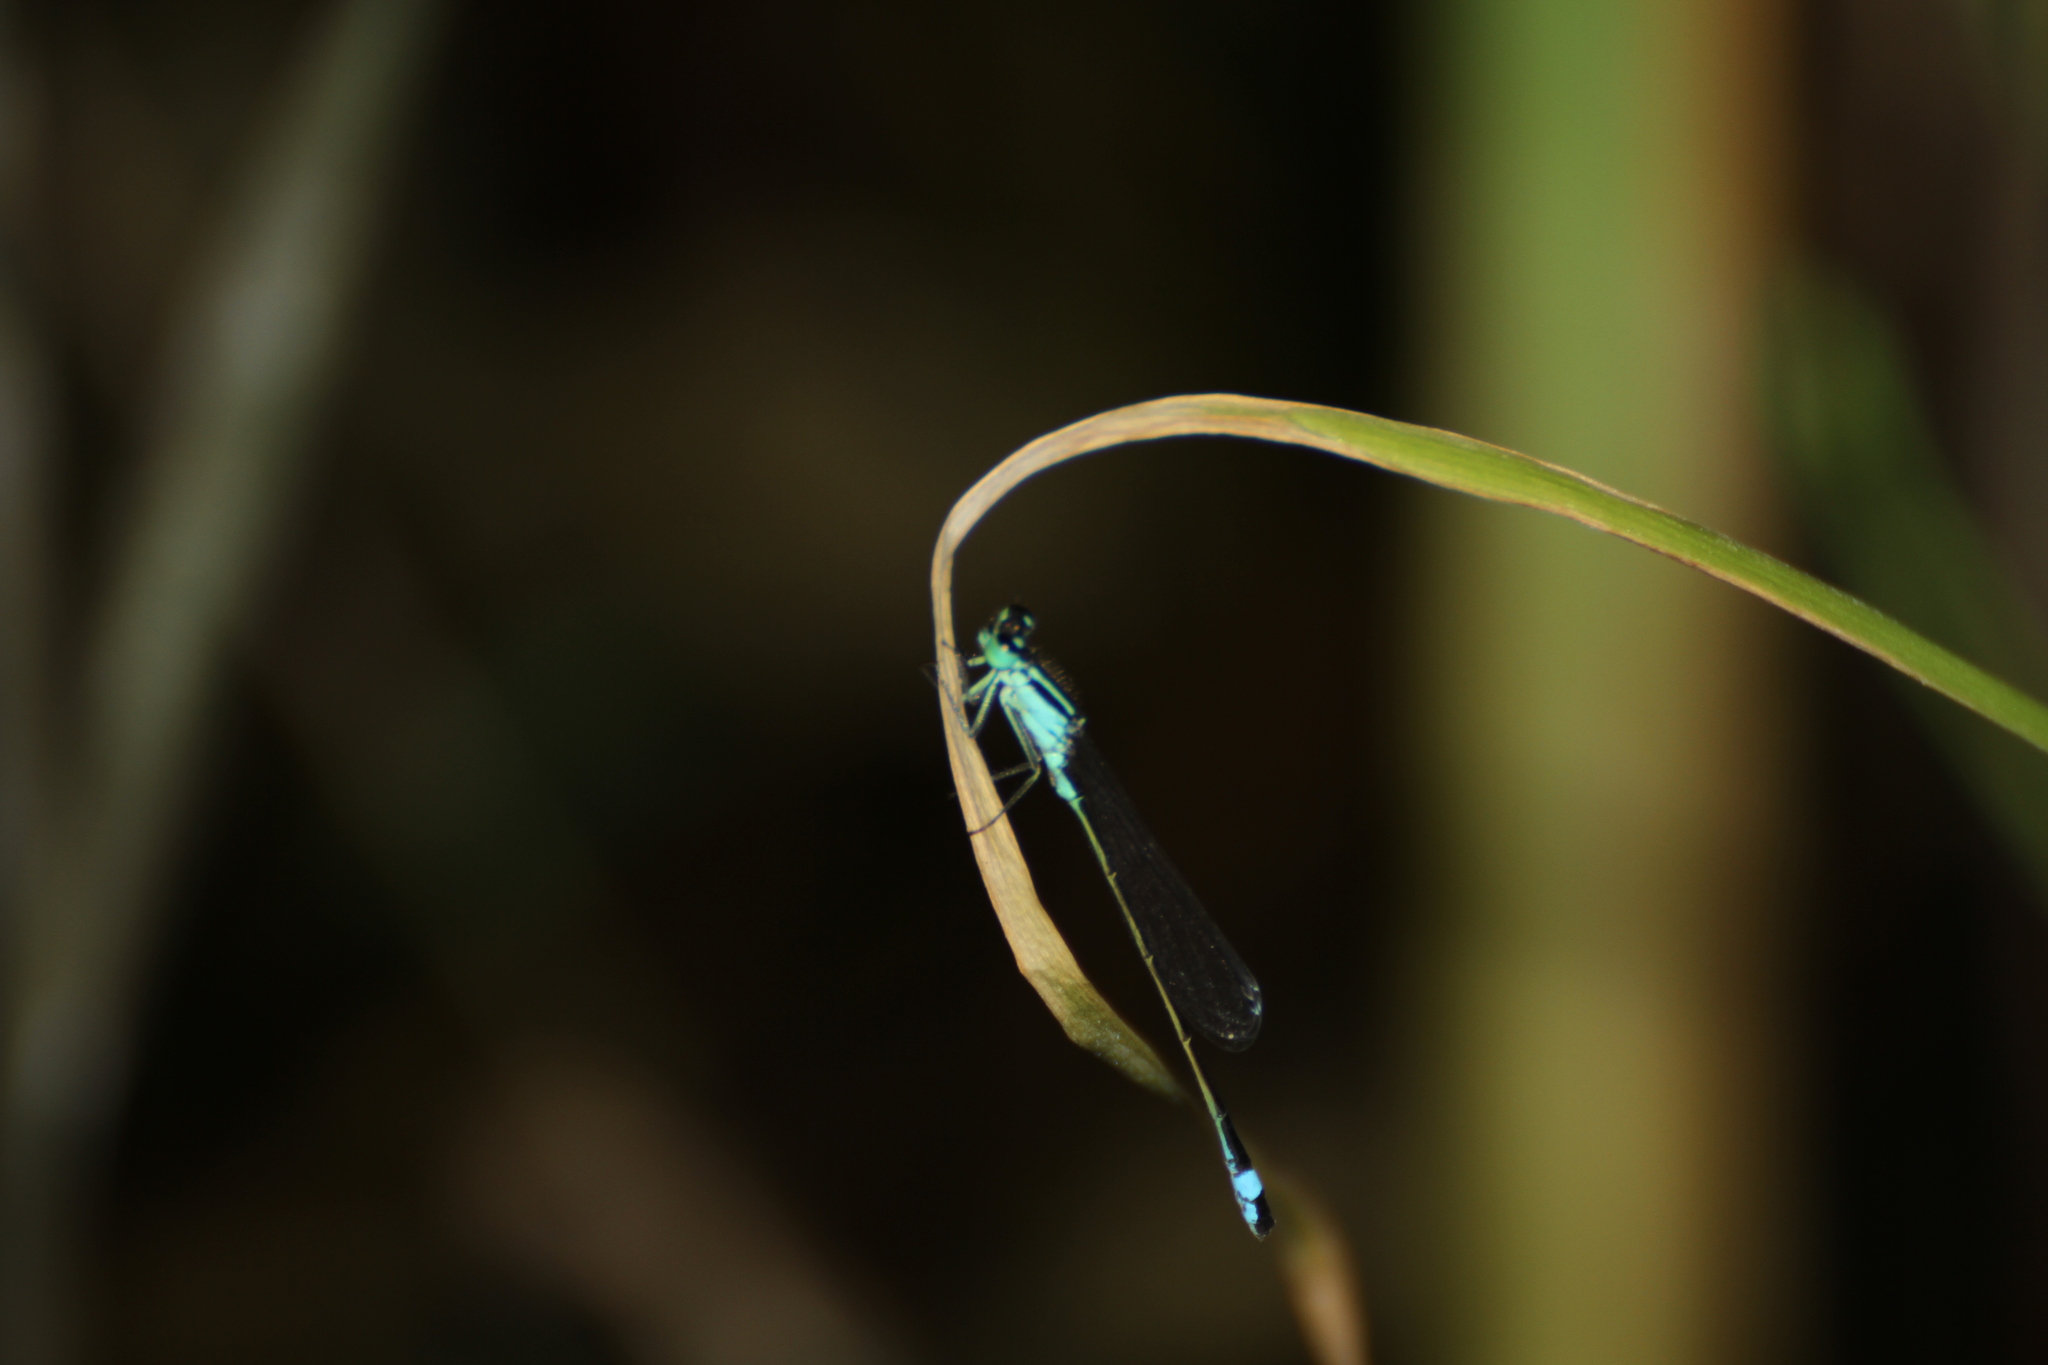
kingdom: Animalia
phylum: Arthropoda
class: Insecta
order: Odonata
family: Coenagrionidae
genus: Ischnura
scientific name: Ischnura elegans
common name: Blue-tailed damselfly
